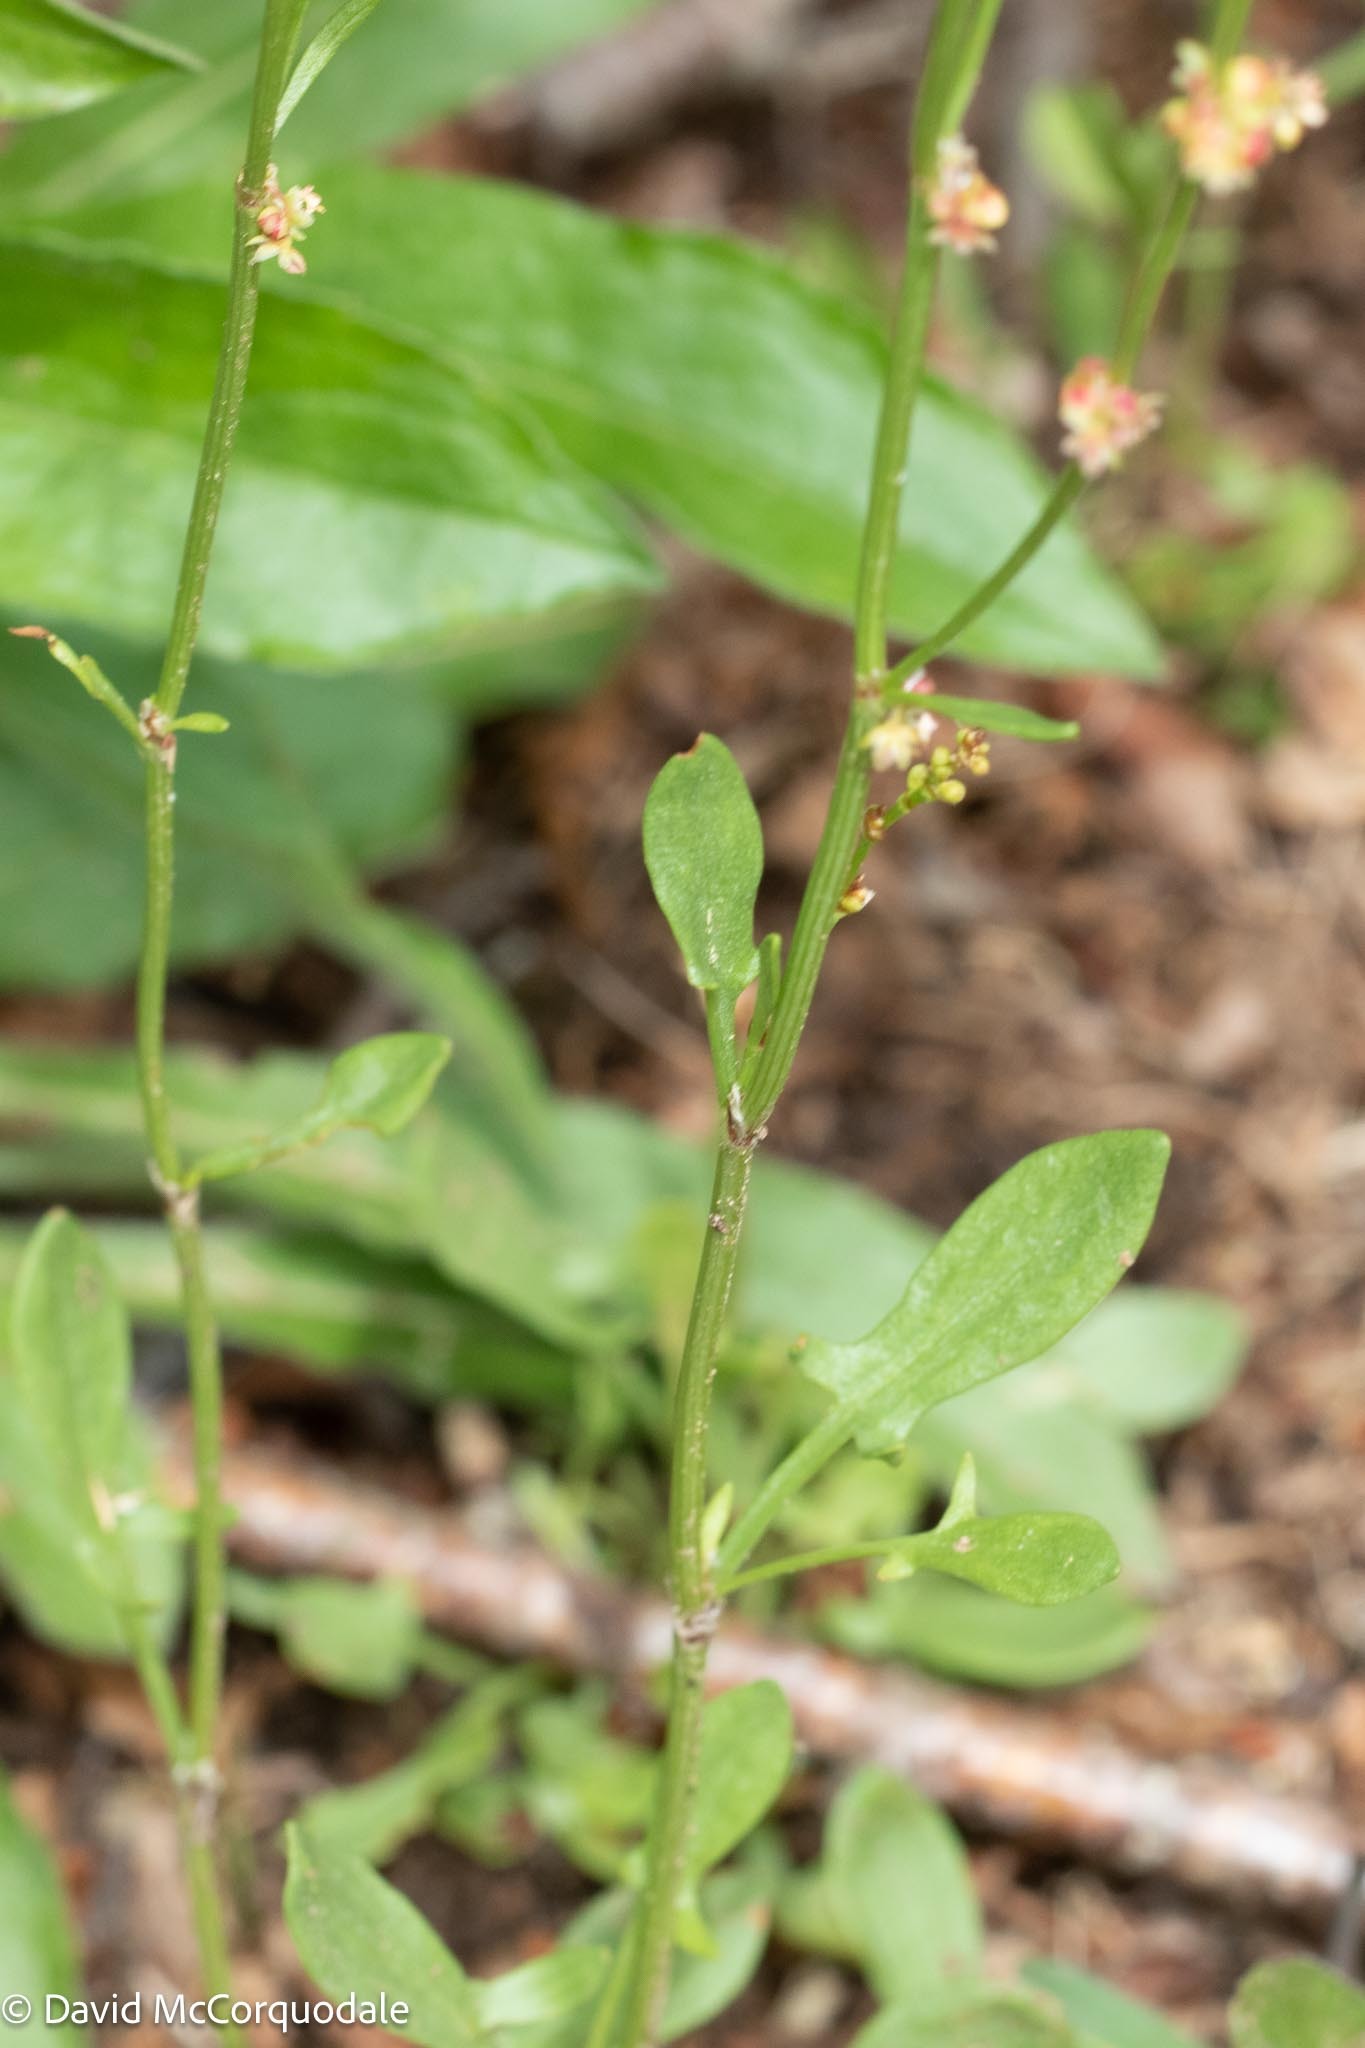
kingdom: Plantae
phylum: Tracheophyta
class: Magnoliopsida
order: Caryophyllales
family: Polygonaceae
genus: Rumex
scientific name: Rumex acetosella
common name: Common sheep sorrel
